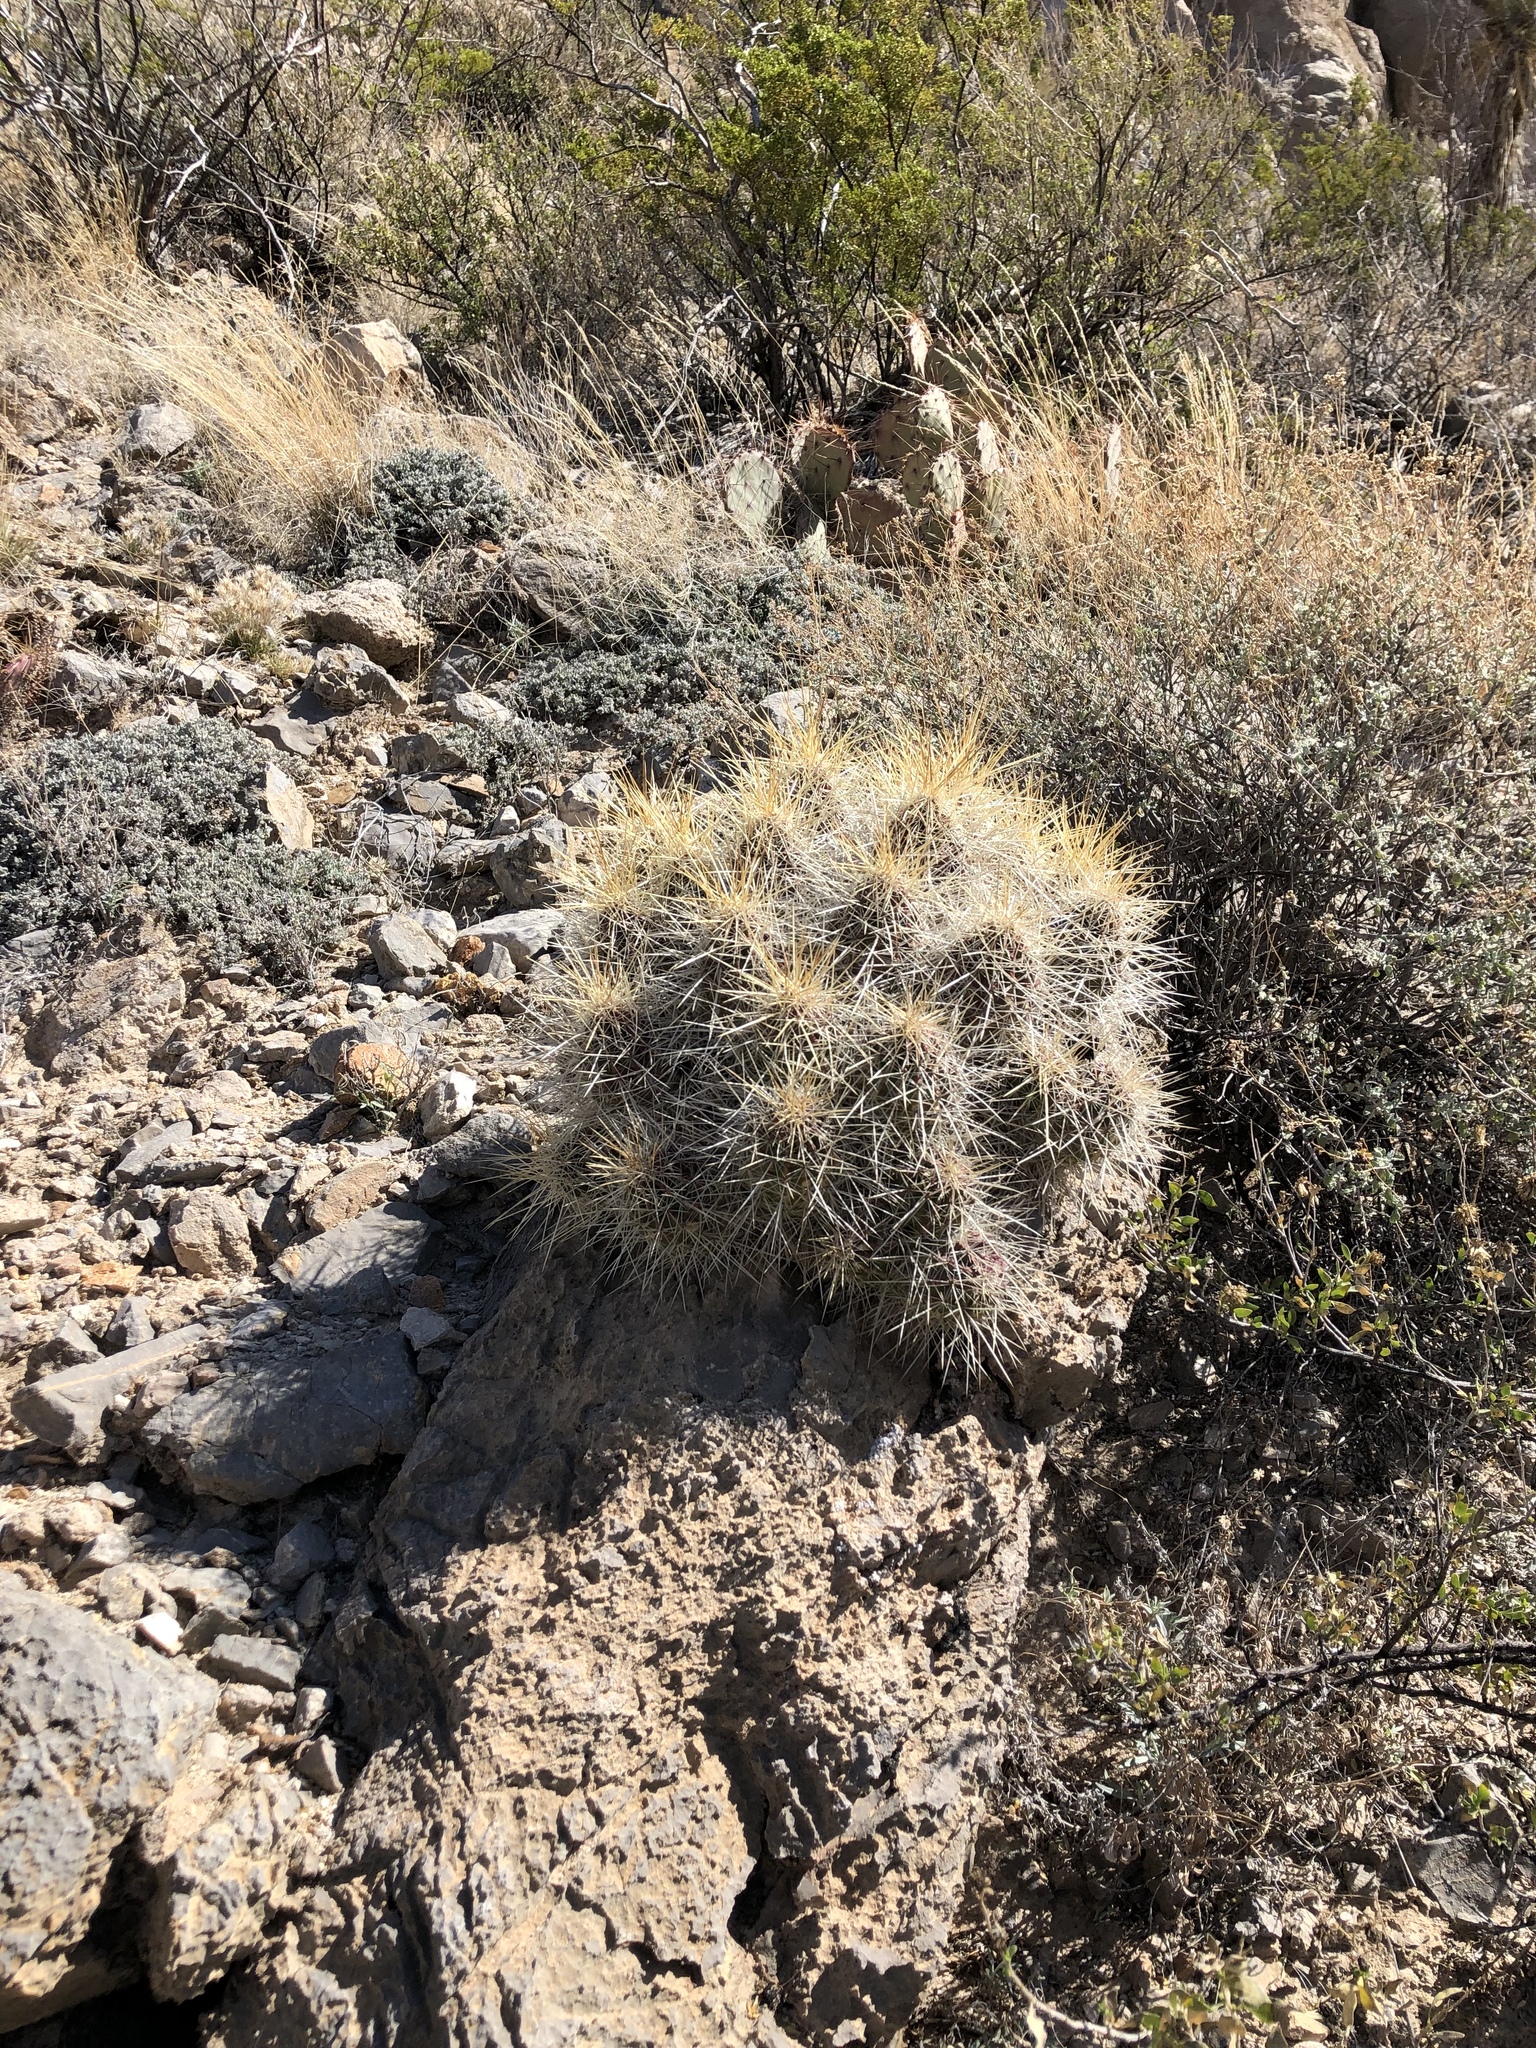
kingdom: Plantae
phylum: Tracheophyta
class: Magnoliopsida
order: Caryophyllales
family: Cactaceae
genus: Echinocereus
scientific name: Echinocereus stramineus
